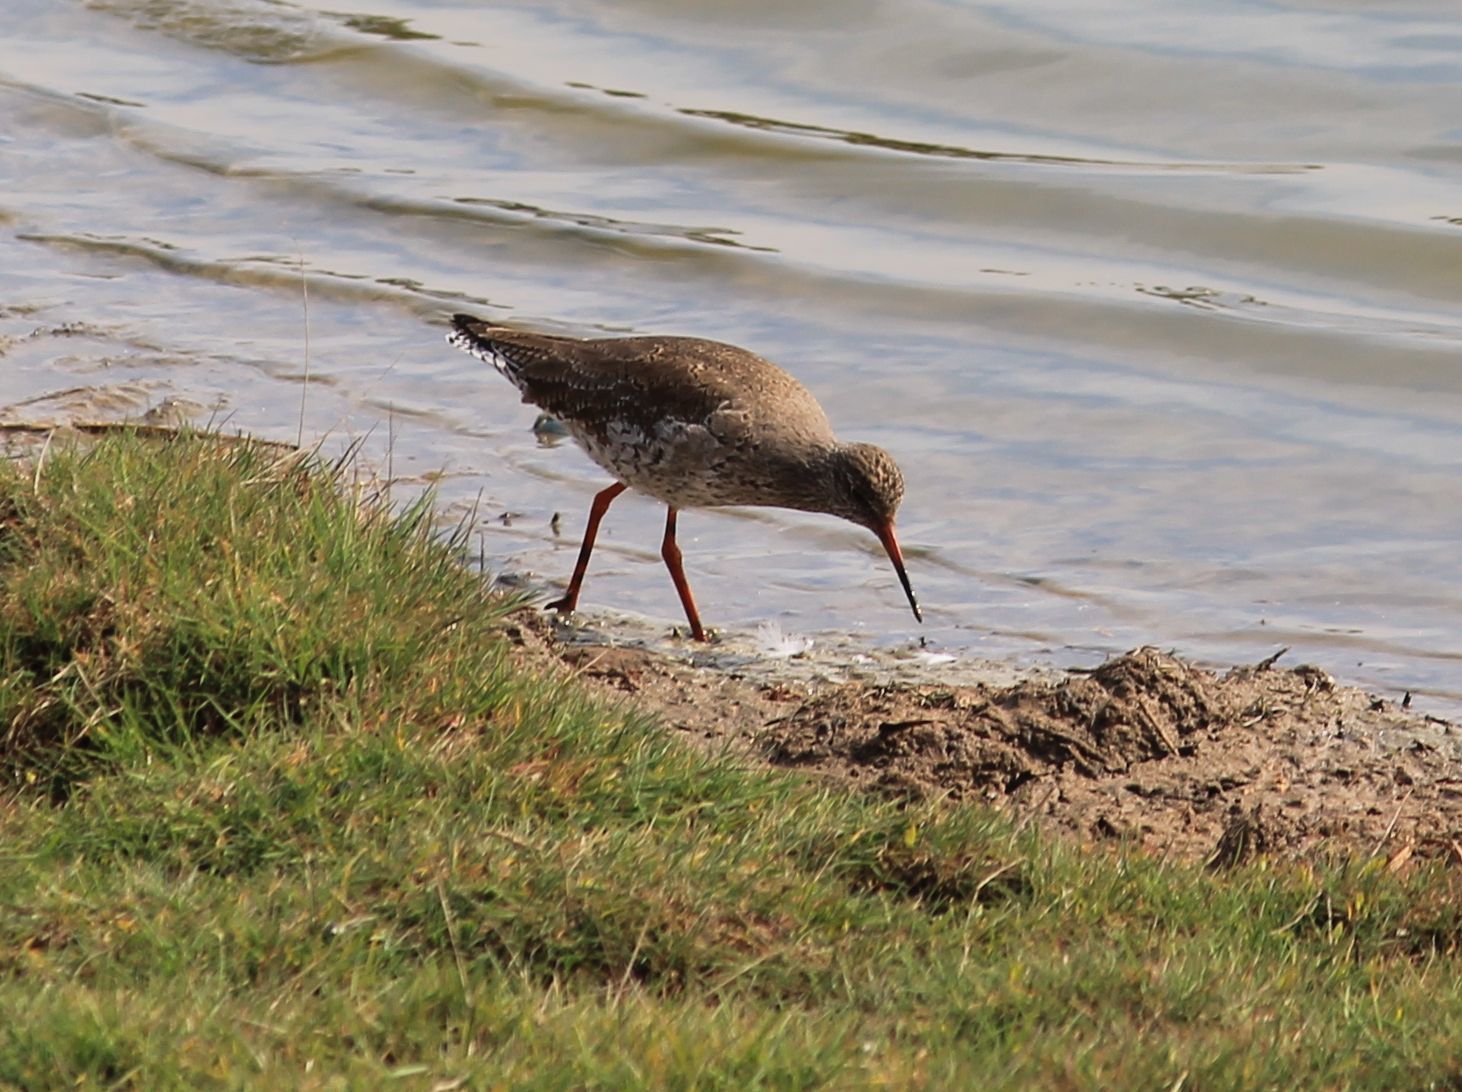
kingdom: Animalia
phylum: Chordata
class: Aves
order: Charadriiformes
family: Scolopacidae
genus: Tringa
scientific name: Tringa totanus
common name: Common redshank
